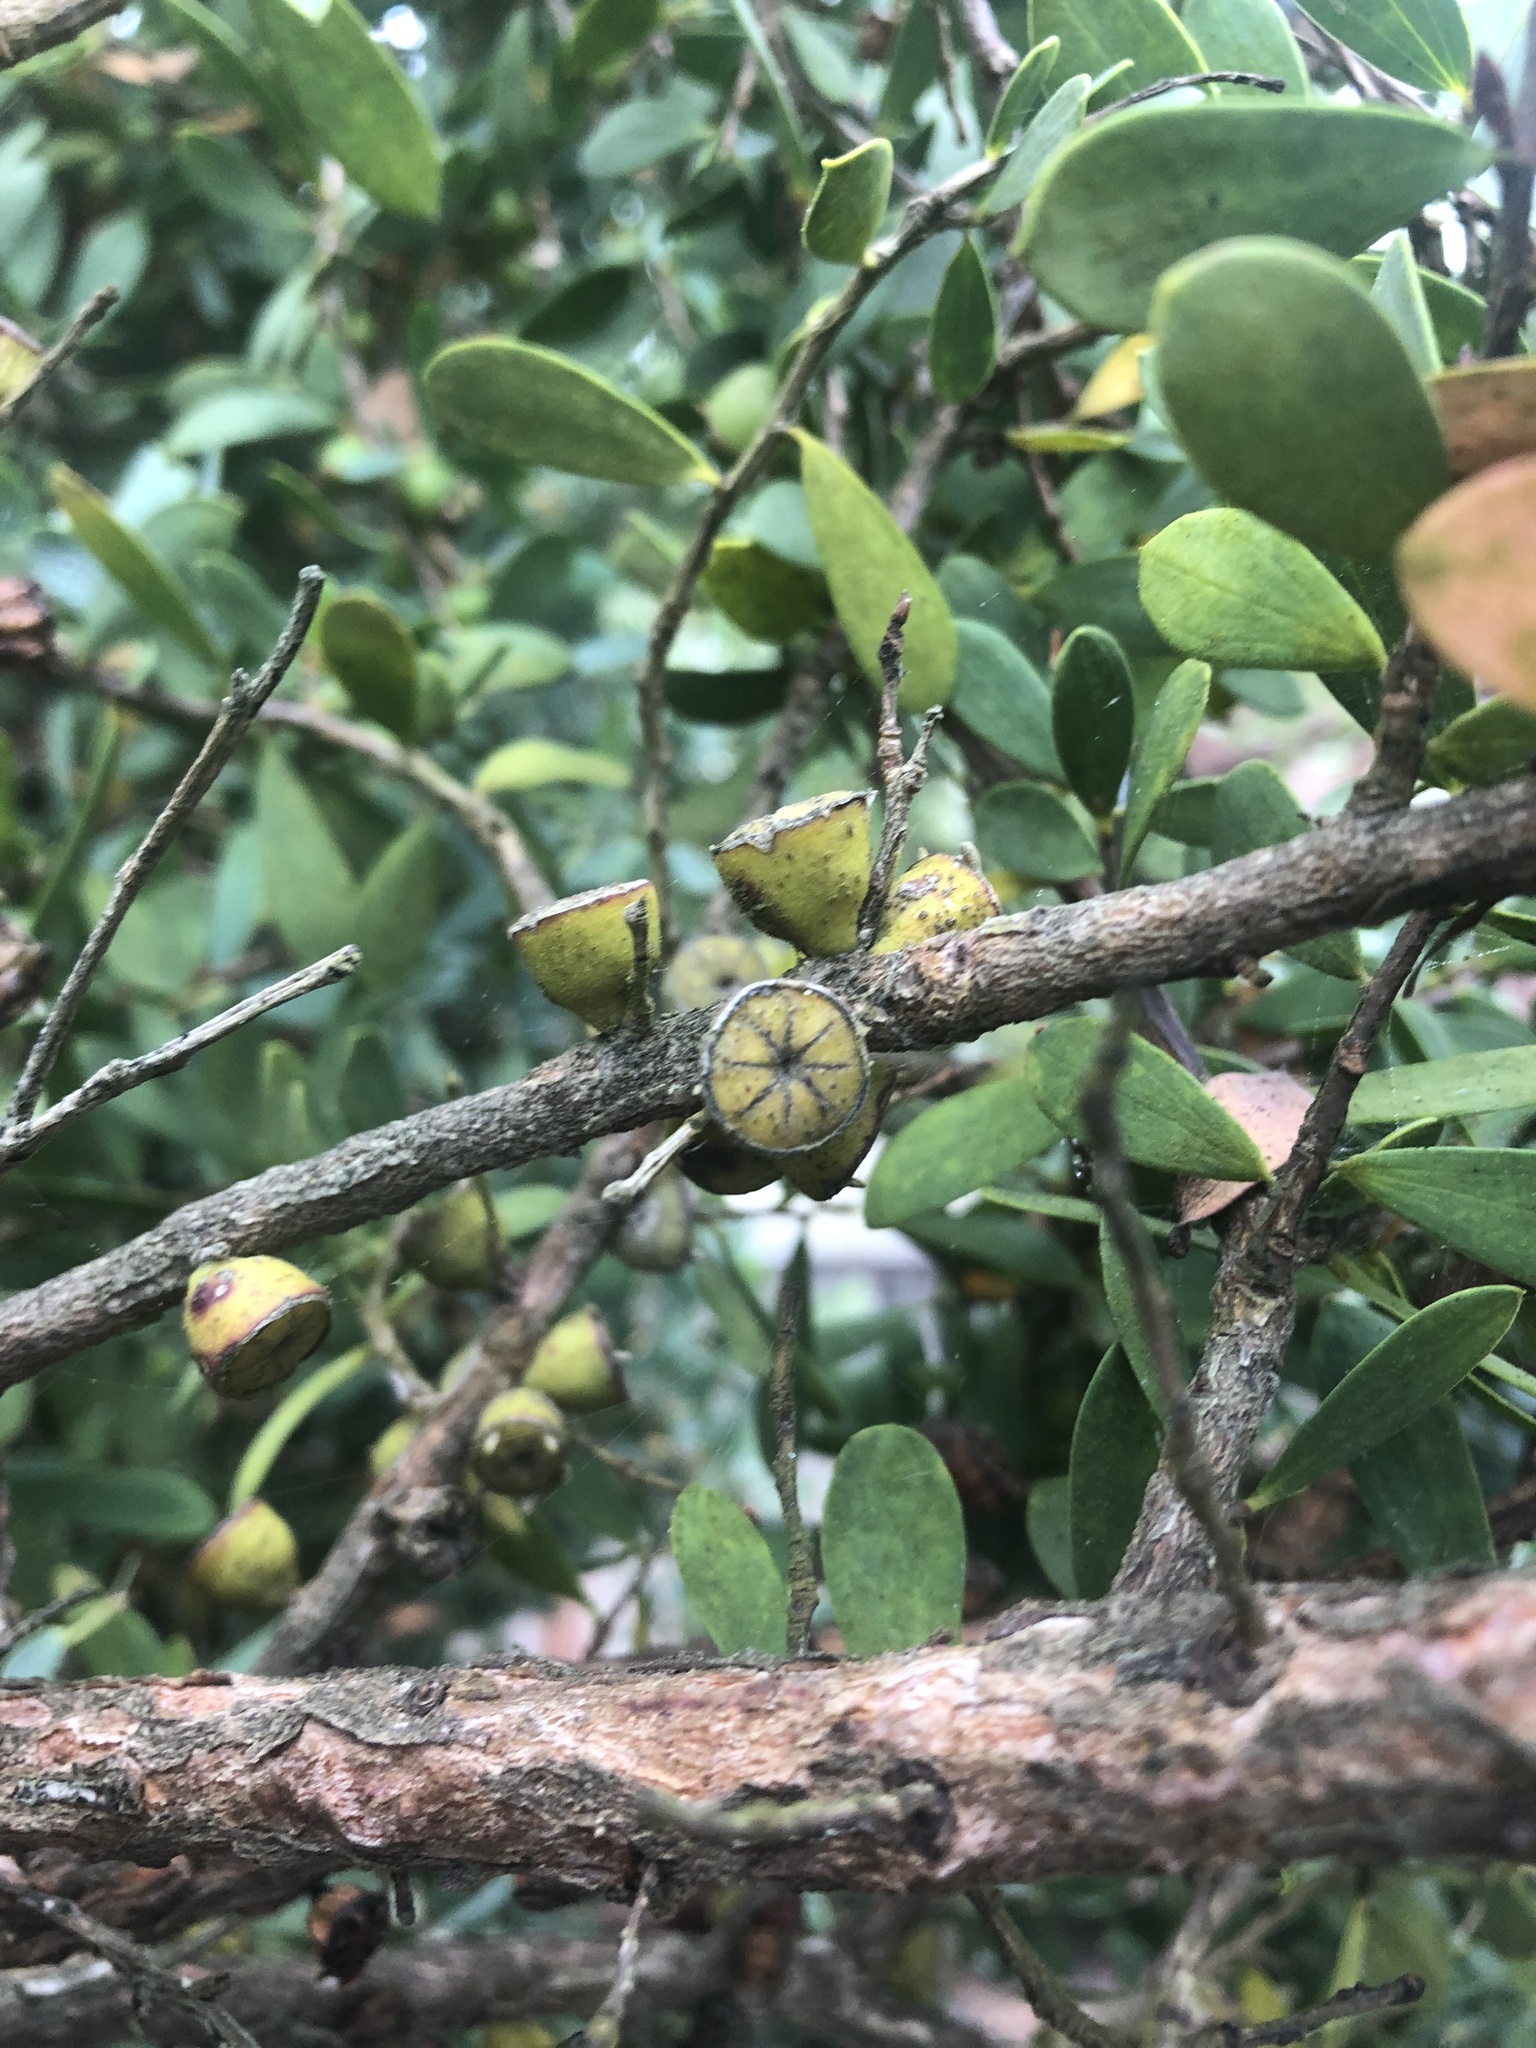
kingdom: Plantae
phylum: Tracheophyta
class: Magnoliopsida
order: Myrtales
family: Myrtaceae
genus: Leptospermum
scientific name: Leptospermum laevigatum
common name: Australian teatree
